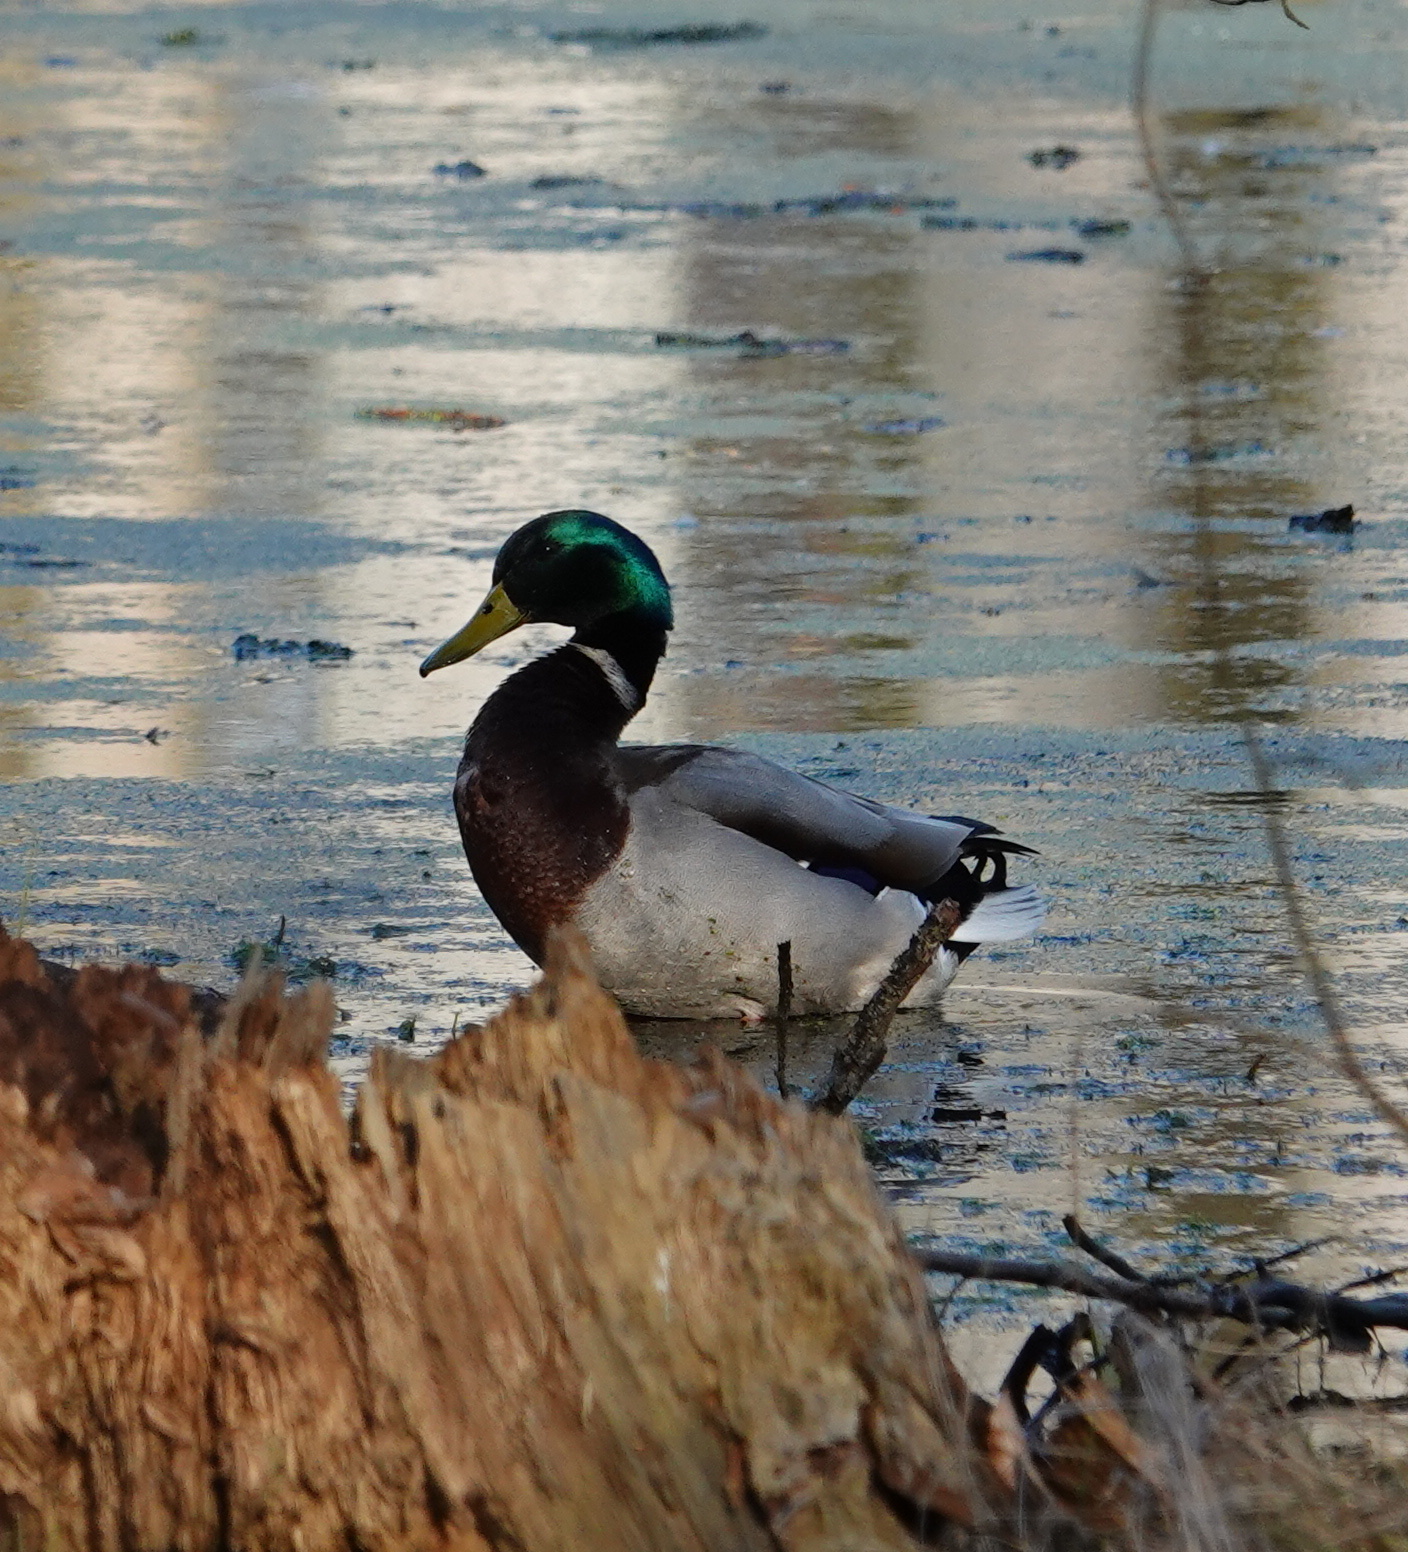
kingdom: Animalia
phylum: Chordata
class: Aves
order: Anseriformes
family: Anatidae
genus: Anas
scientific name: Anas platyrhynchos
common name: Mallard
